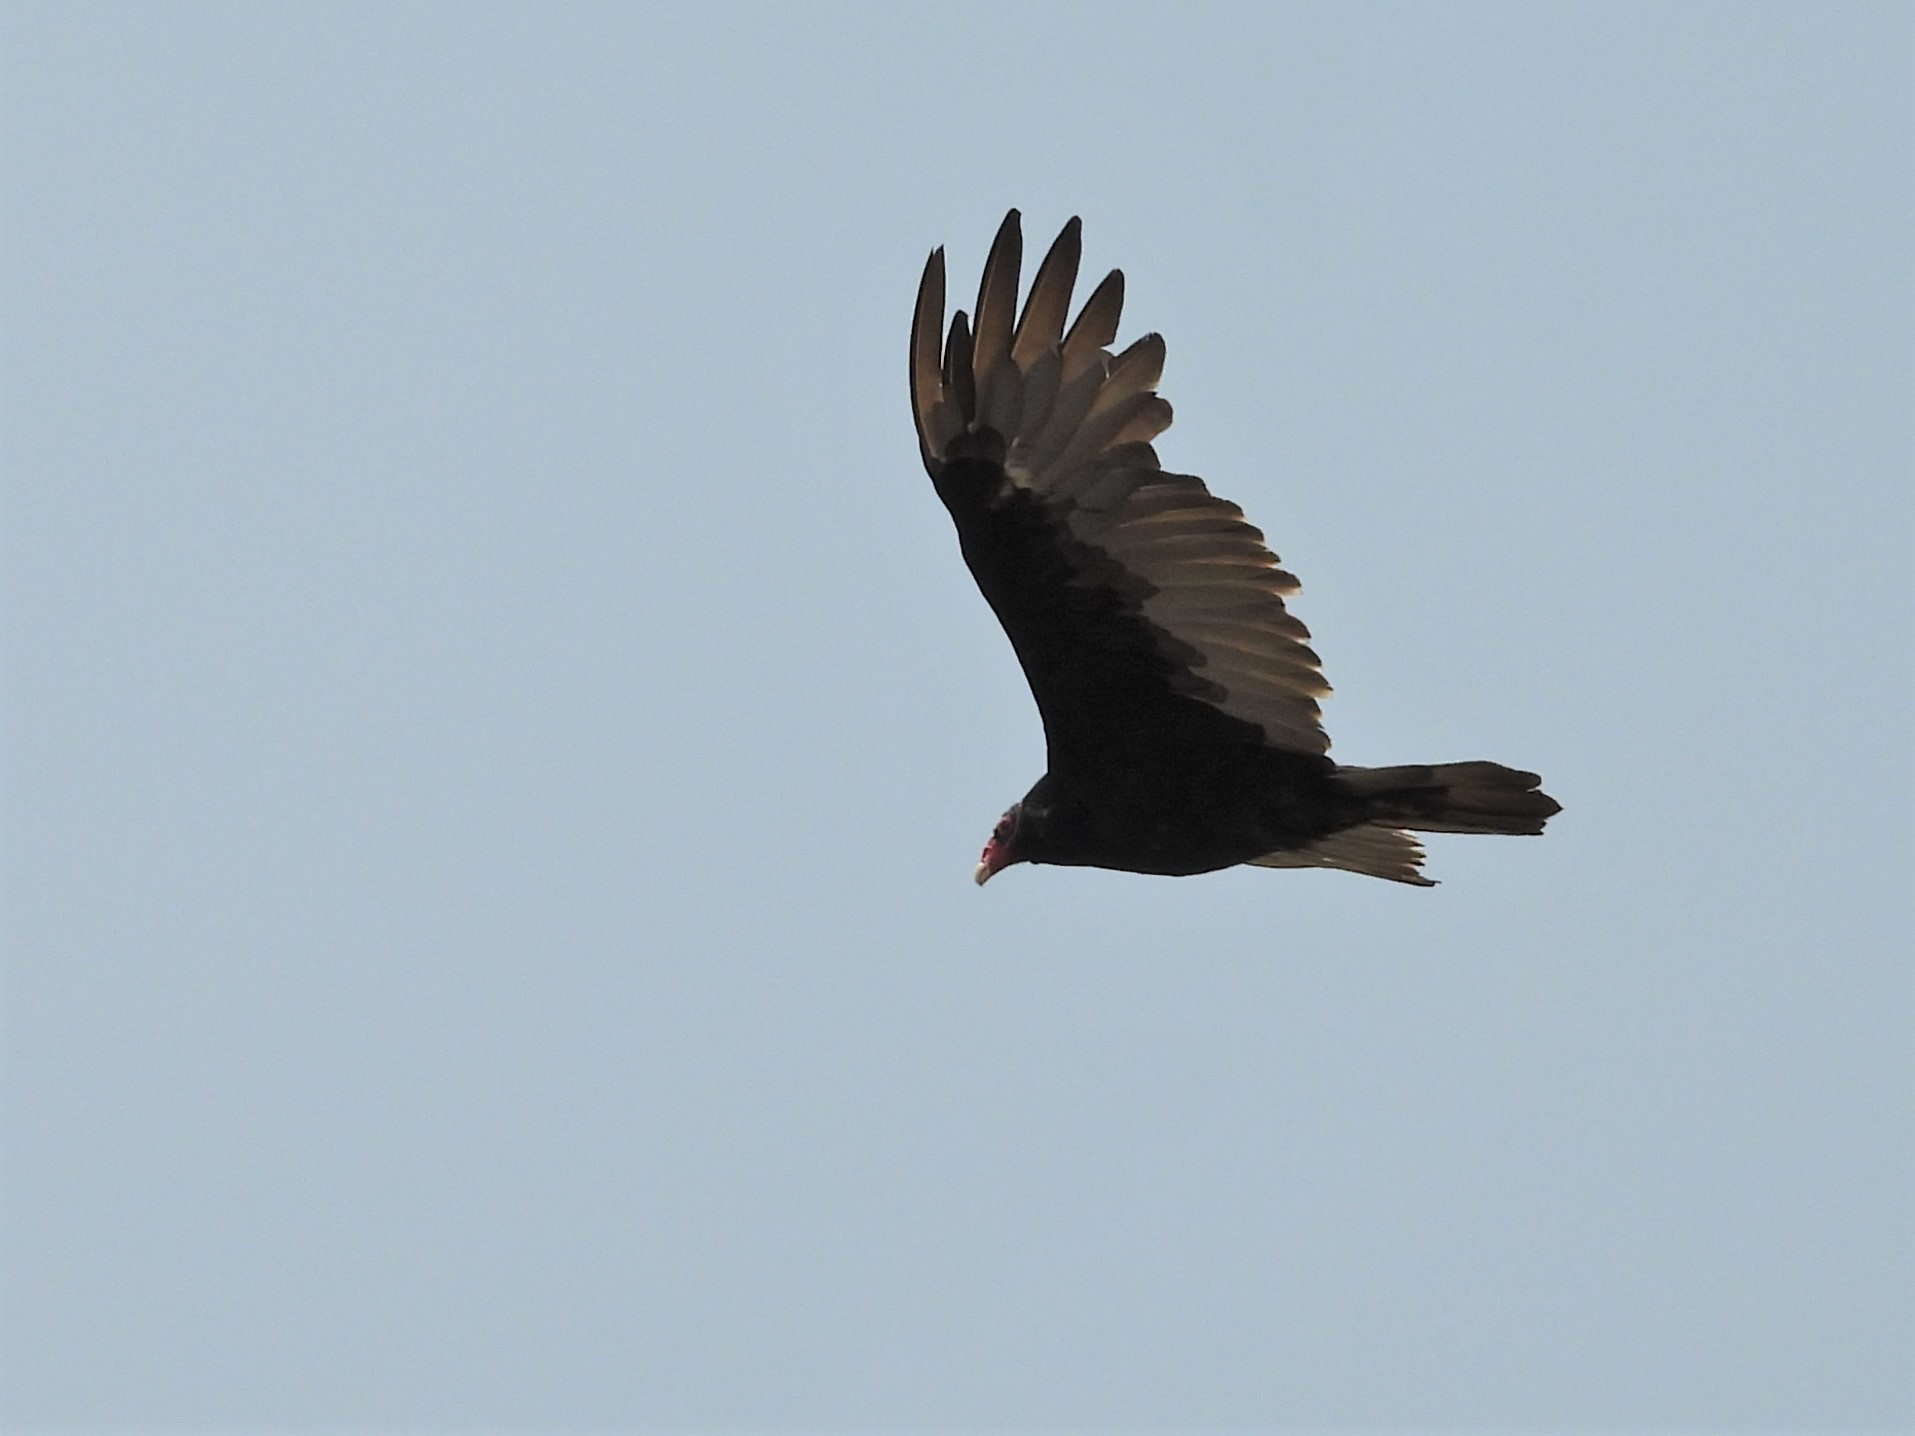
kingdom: Animalia
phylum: Chordata
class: Aves
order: Accipitriformes
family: Cathartidae
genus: Cathartes
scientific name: Cathartes aura
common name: Turkey vulture
